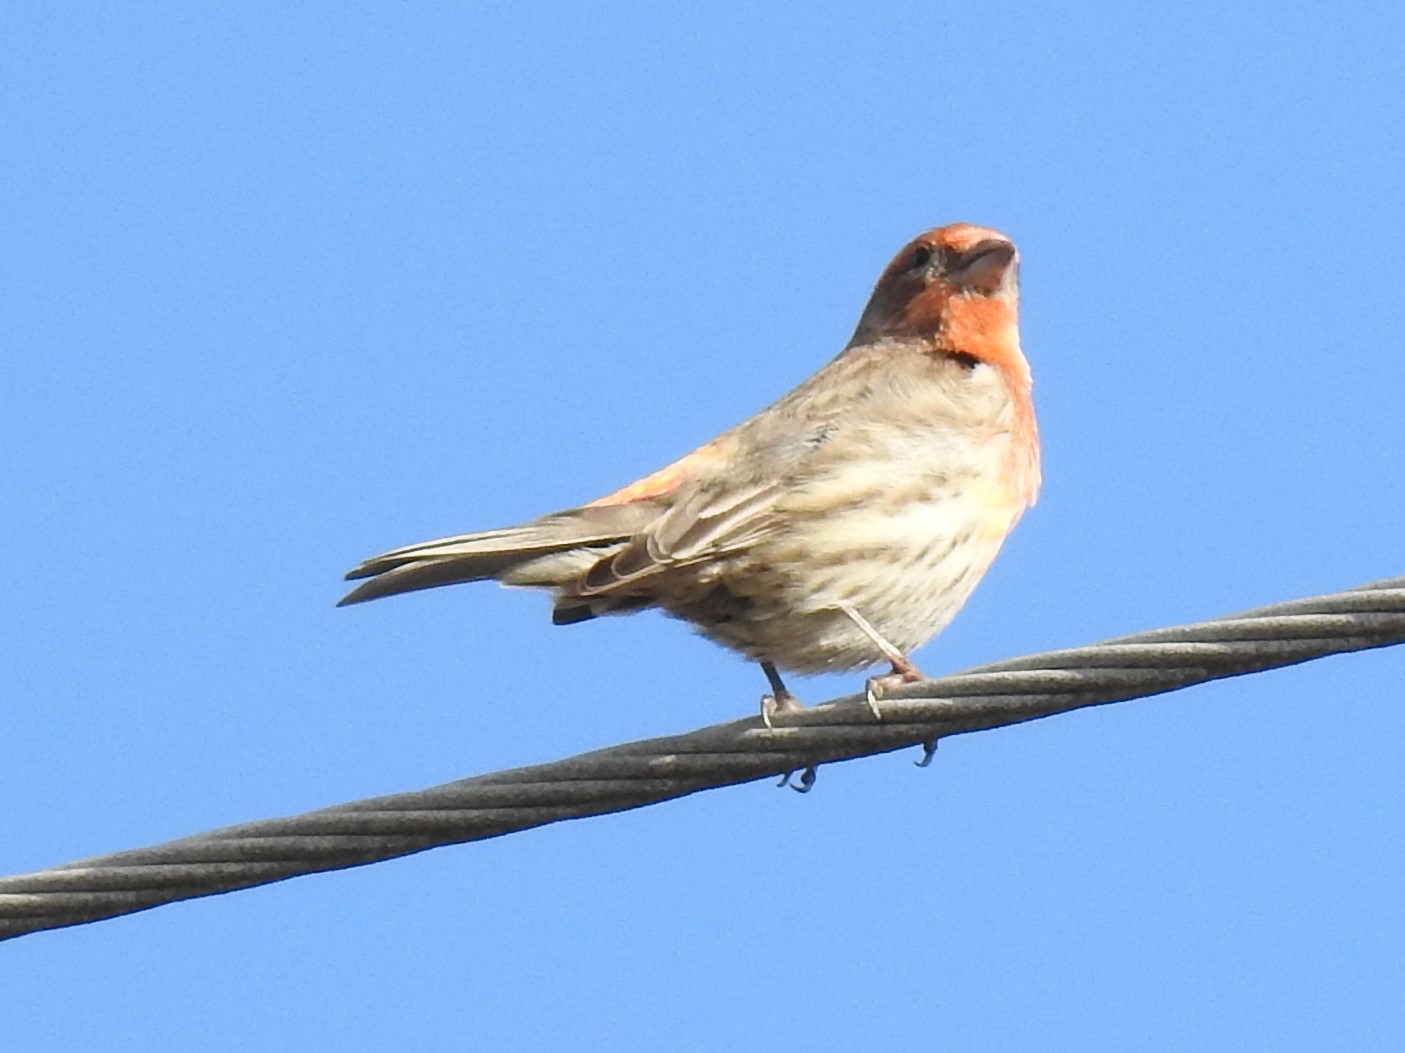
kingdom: Animalia
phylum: Chordata
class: Aves
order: Passeriformes
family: Fringillidae
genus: Haemorhous
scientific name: Haemorhous mexicanus
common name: House finch
